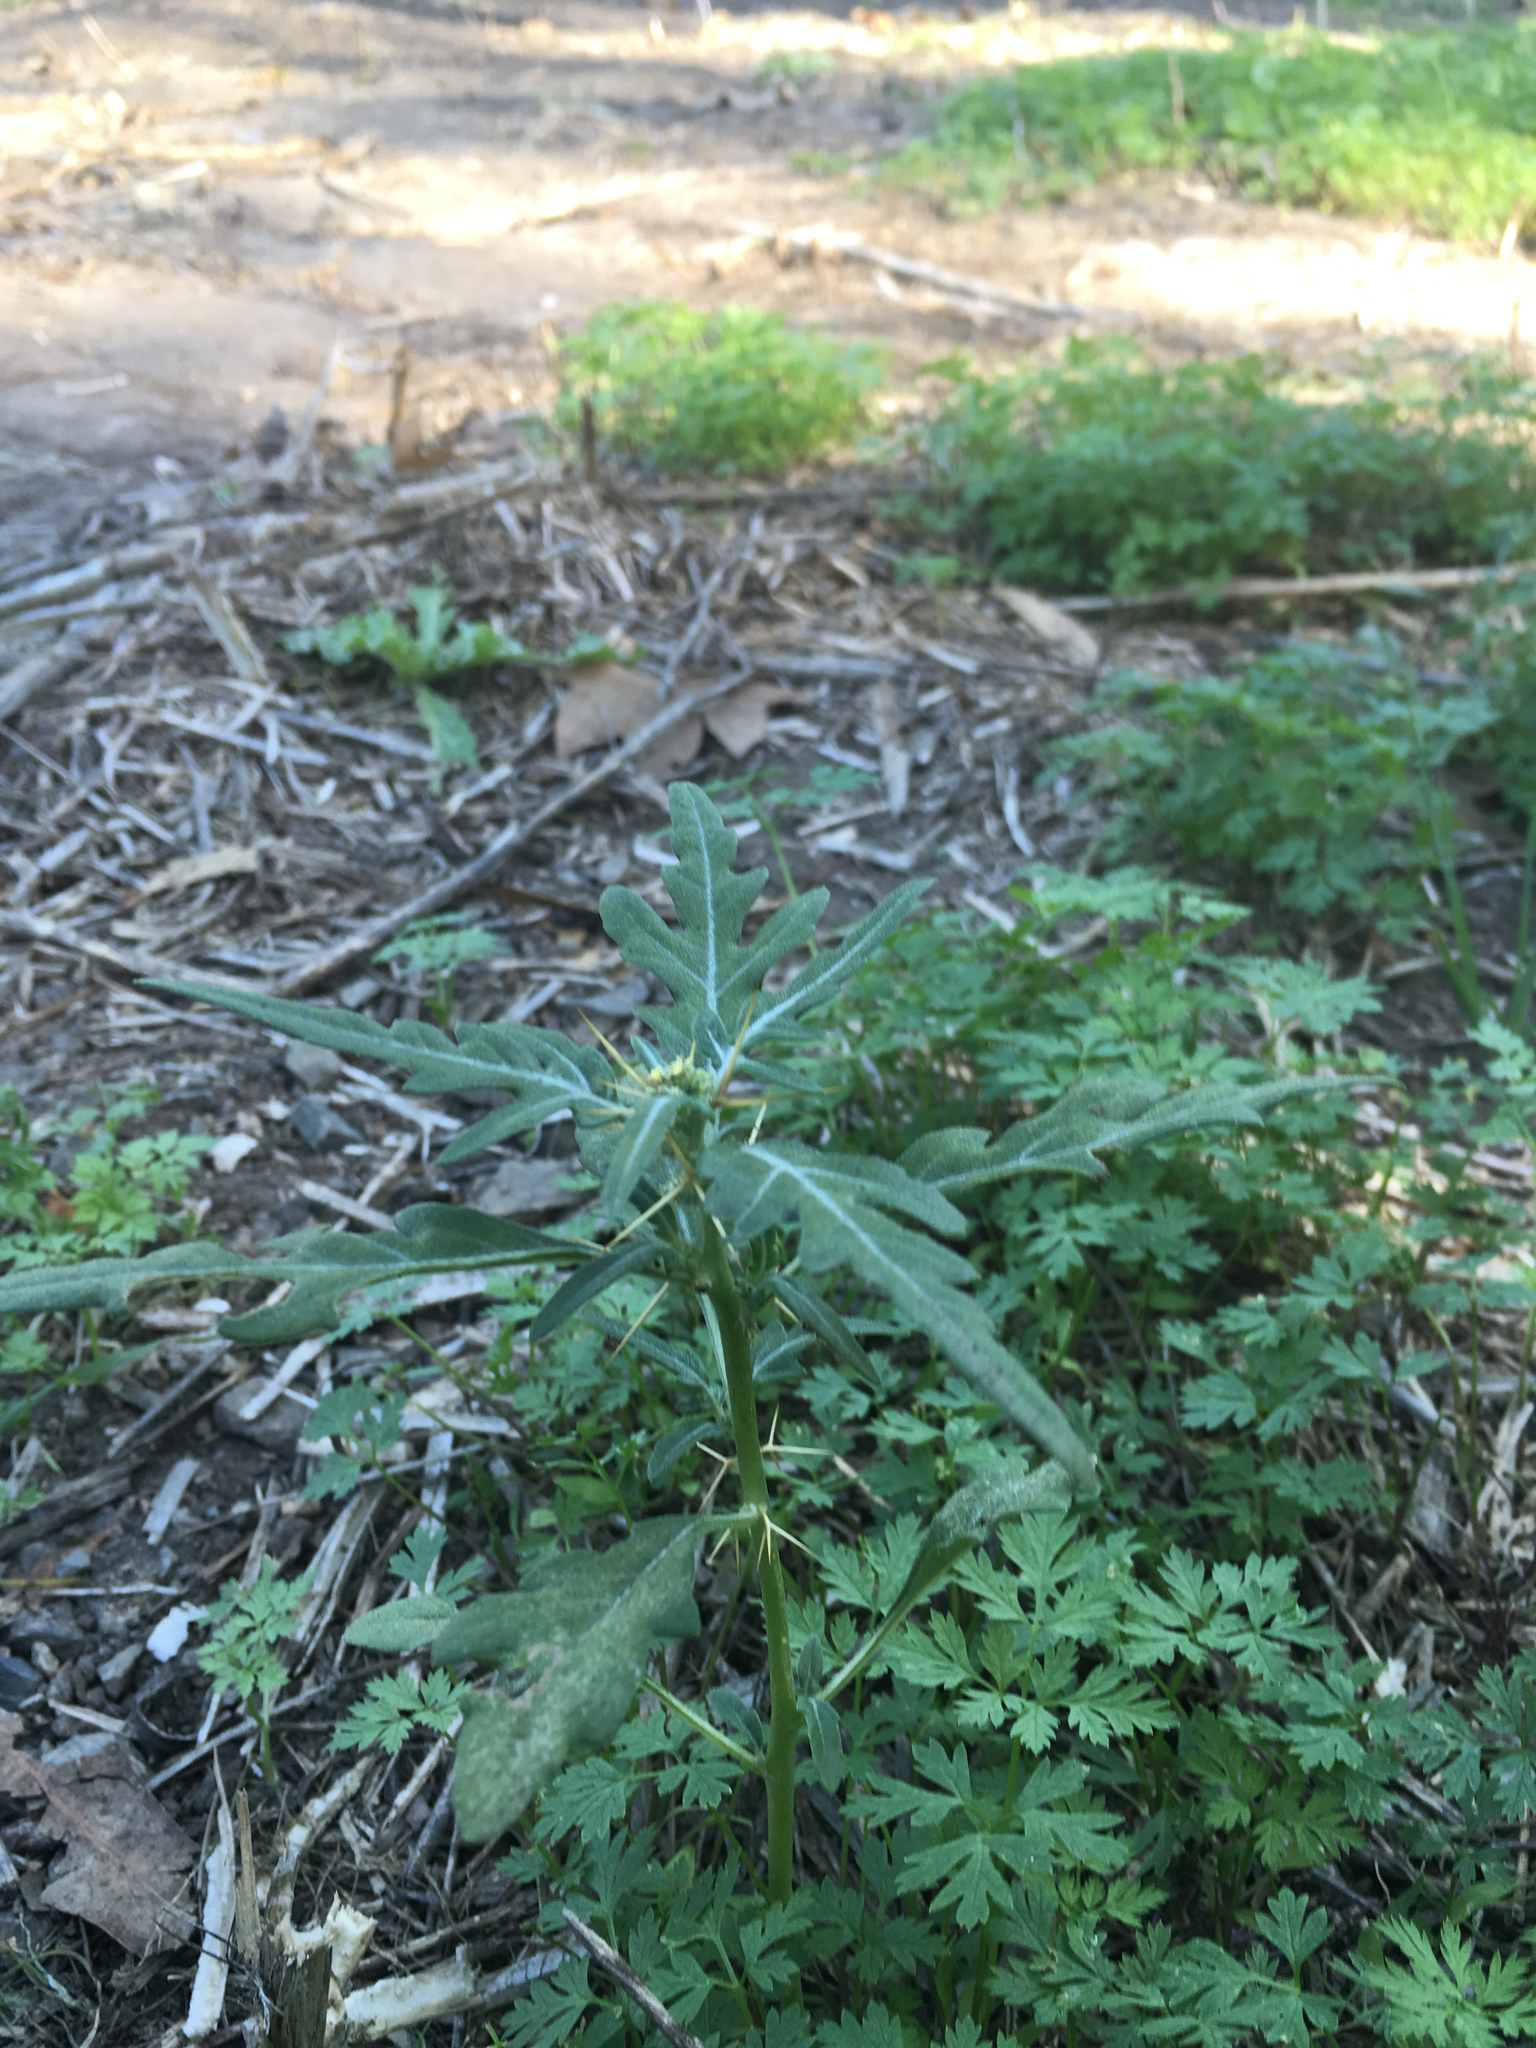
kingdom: Plantae
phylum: Tracheophyta
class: Magnoliopsida
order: Asterales
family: Asteraceae
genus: Xanthium
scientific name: Xanthium spinosum
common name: Spiny cocklebur
